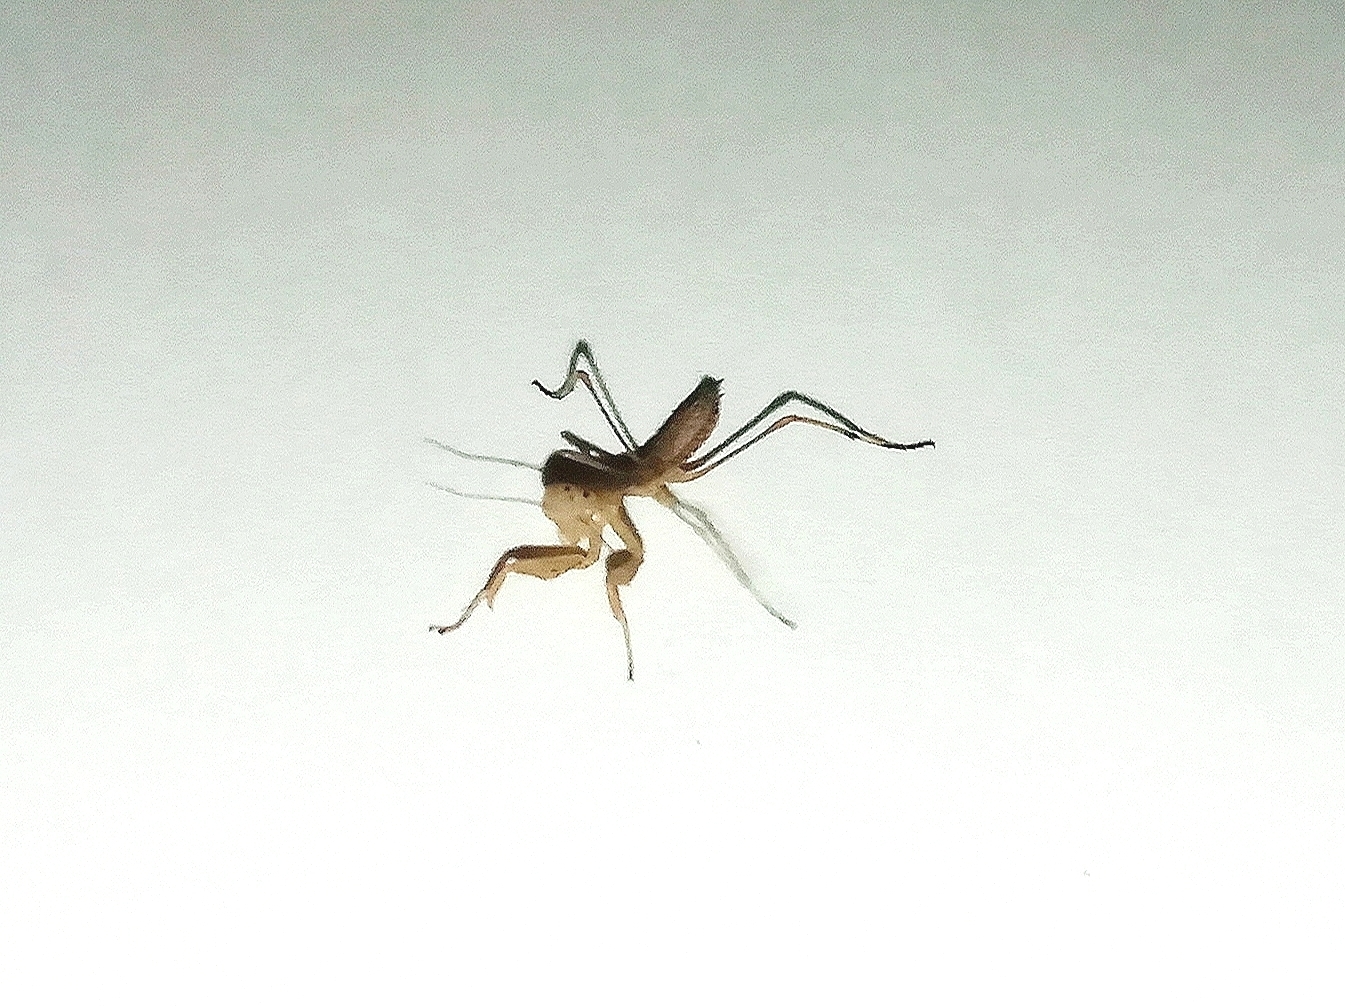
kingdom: Animalia
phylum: Arthropoda
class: Insecta
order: Mantodea
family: Mantidae
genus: Mantis
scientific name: Mantis religiosa
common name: Praying mantis
